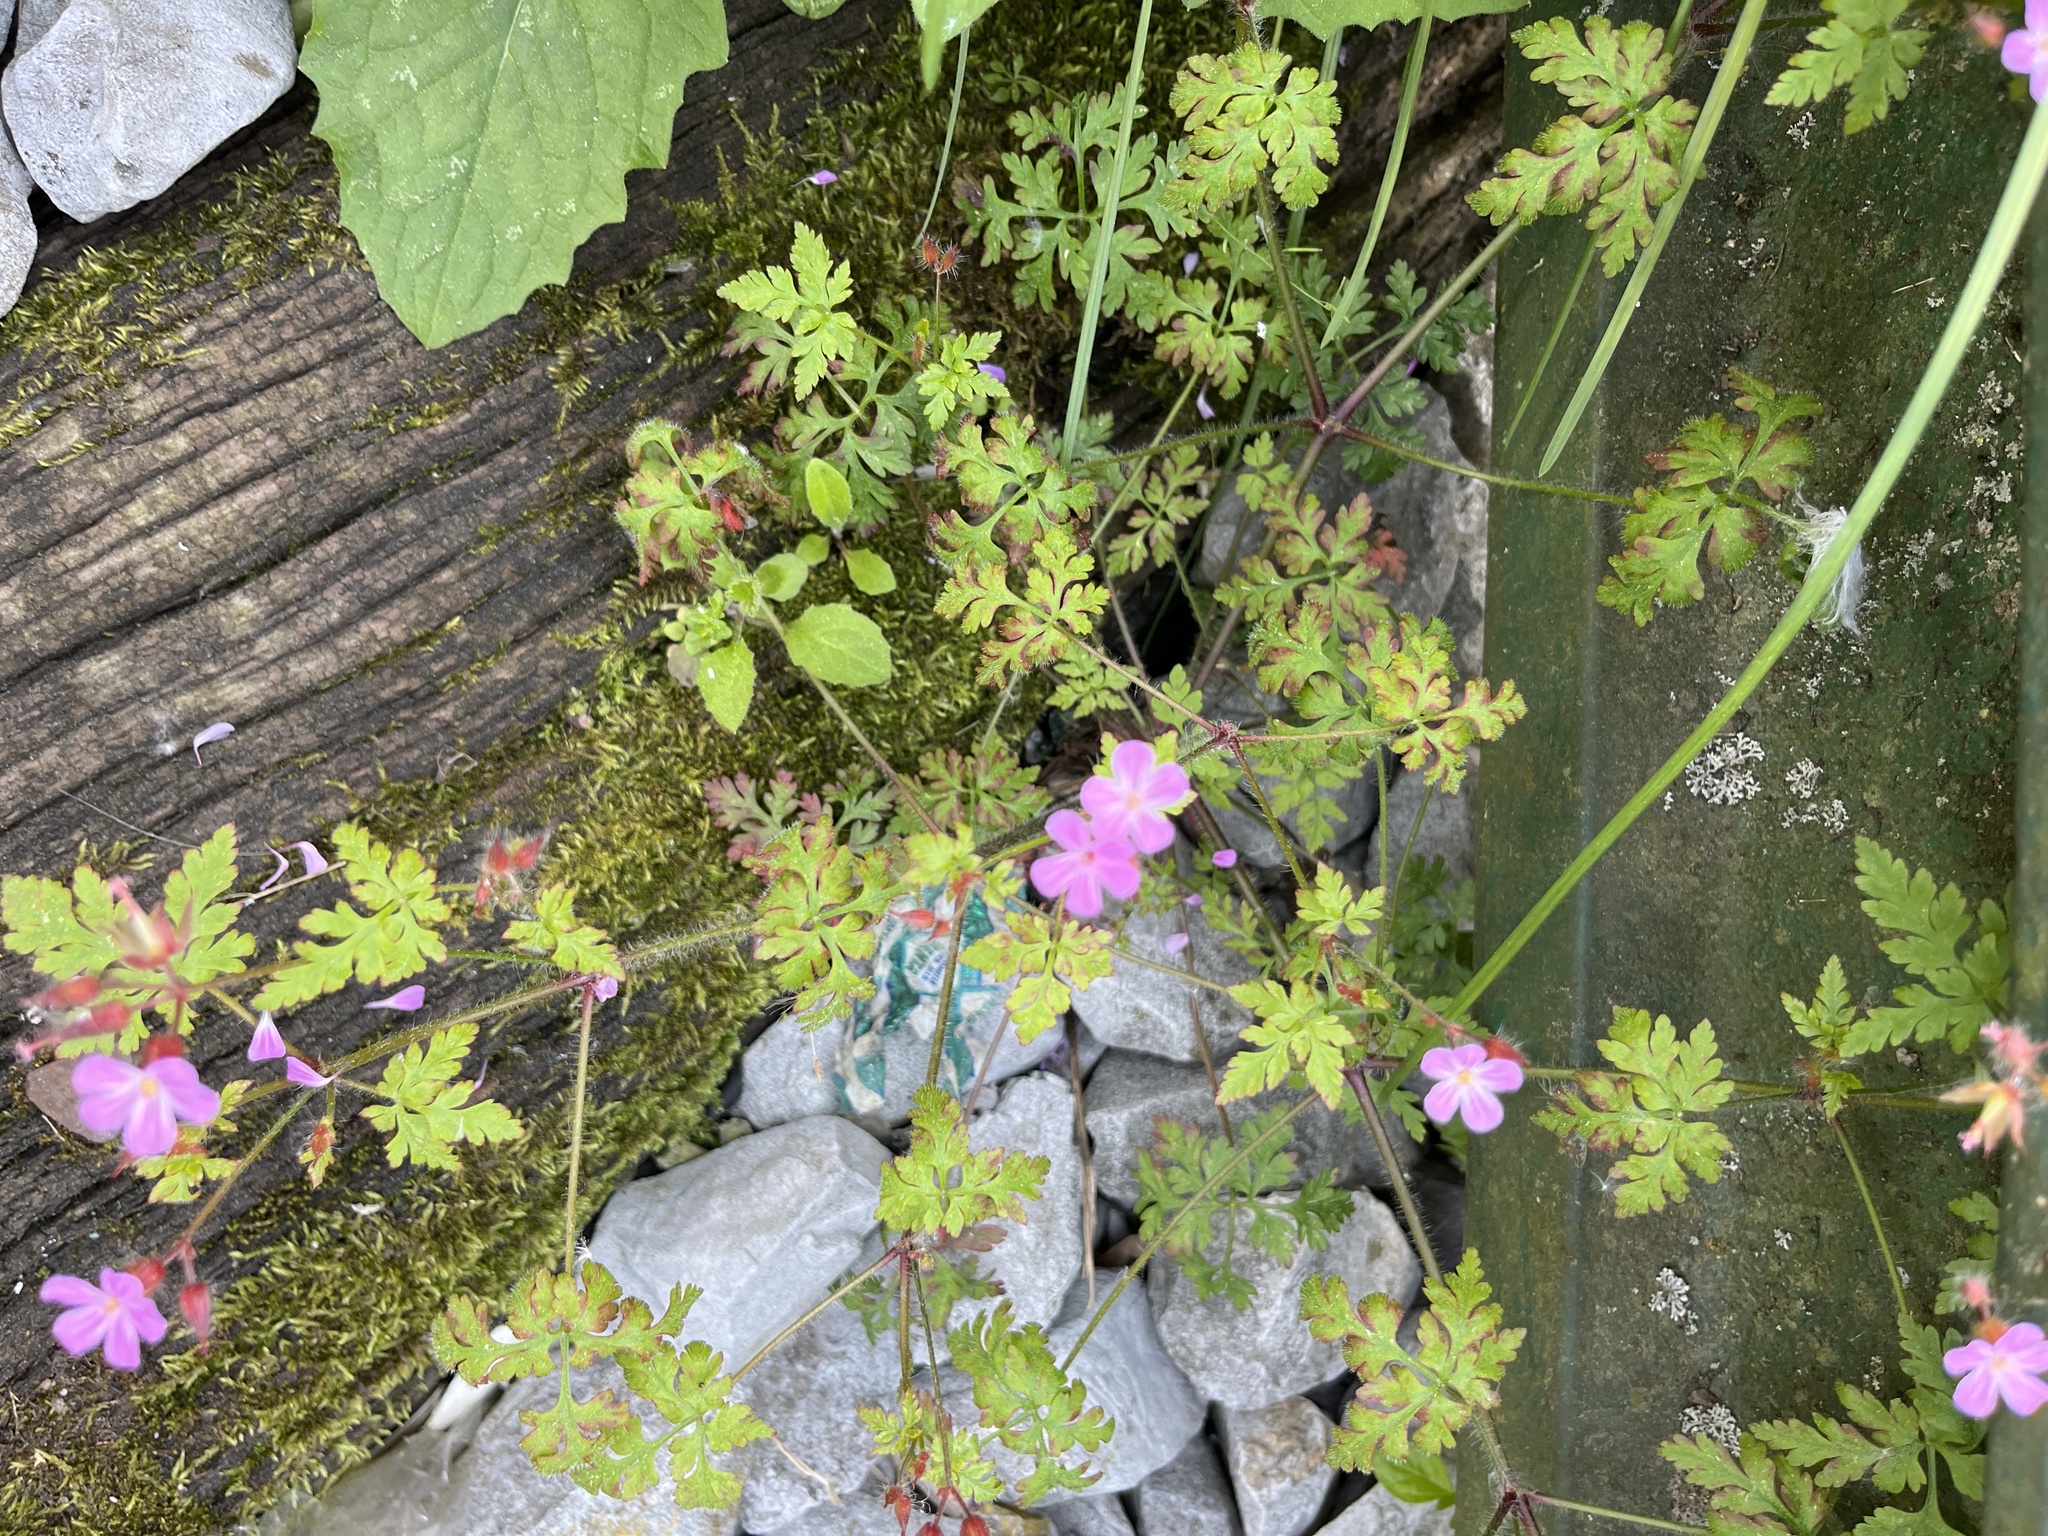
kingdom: Plantae
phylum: Tracheophyta
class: Magnoliopsida
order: Geraniales
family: Geraniaceae
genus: Geranium
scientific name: Geranium purpureum
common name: Little-robin
